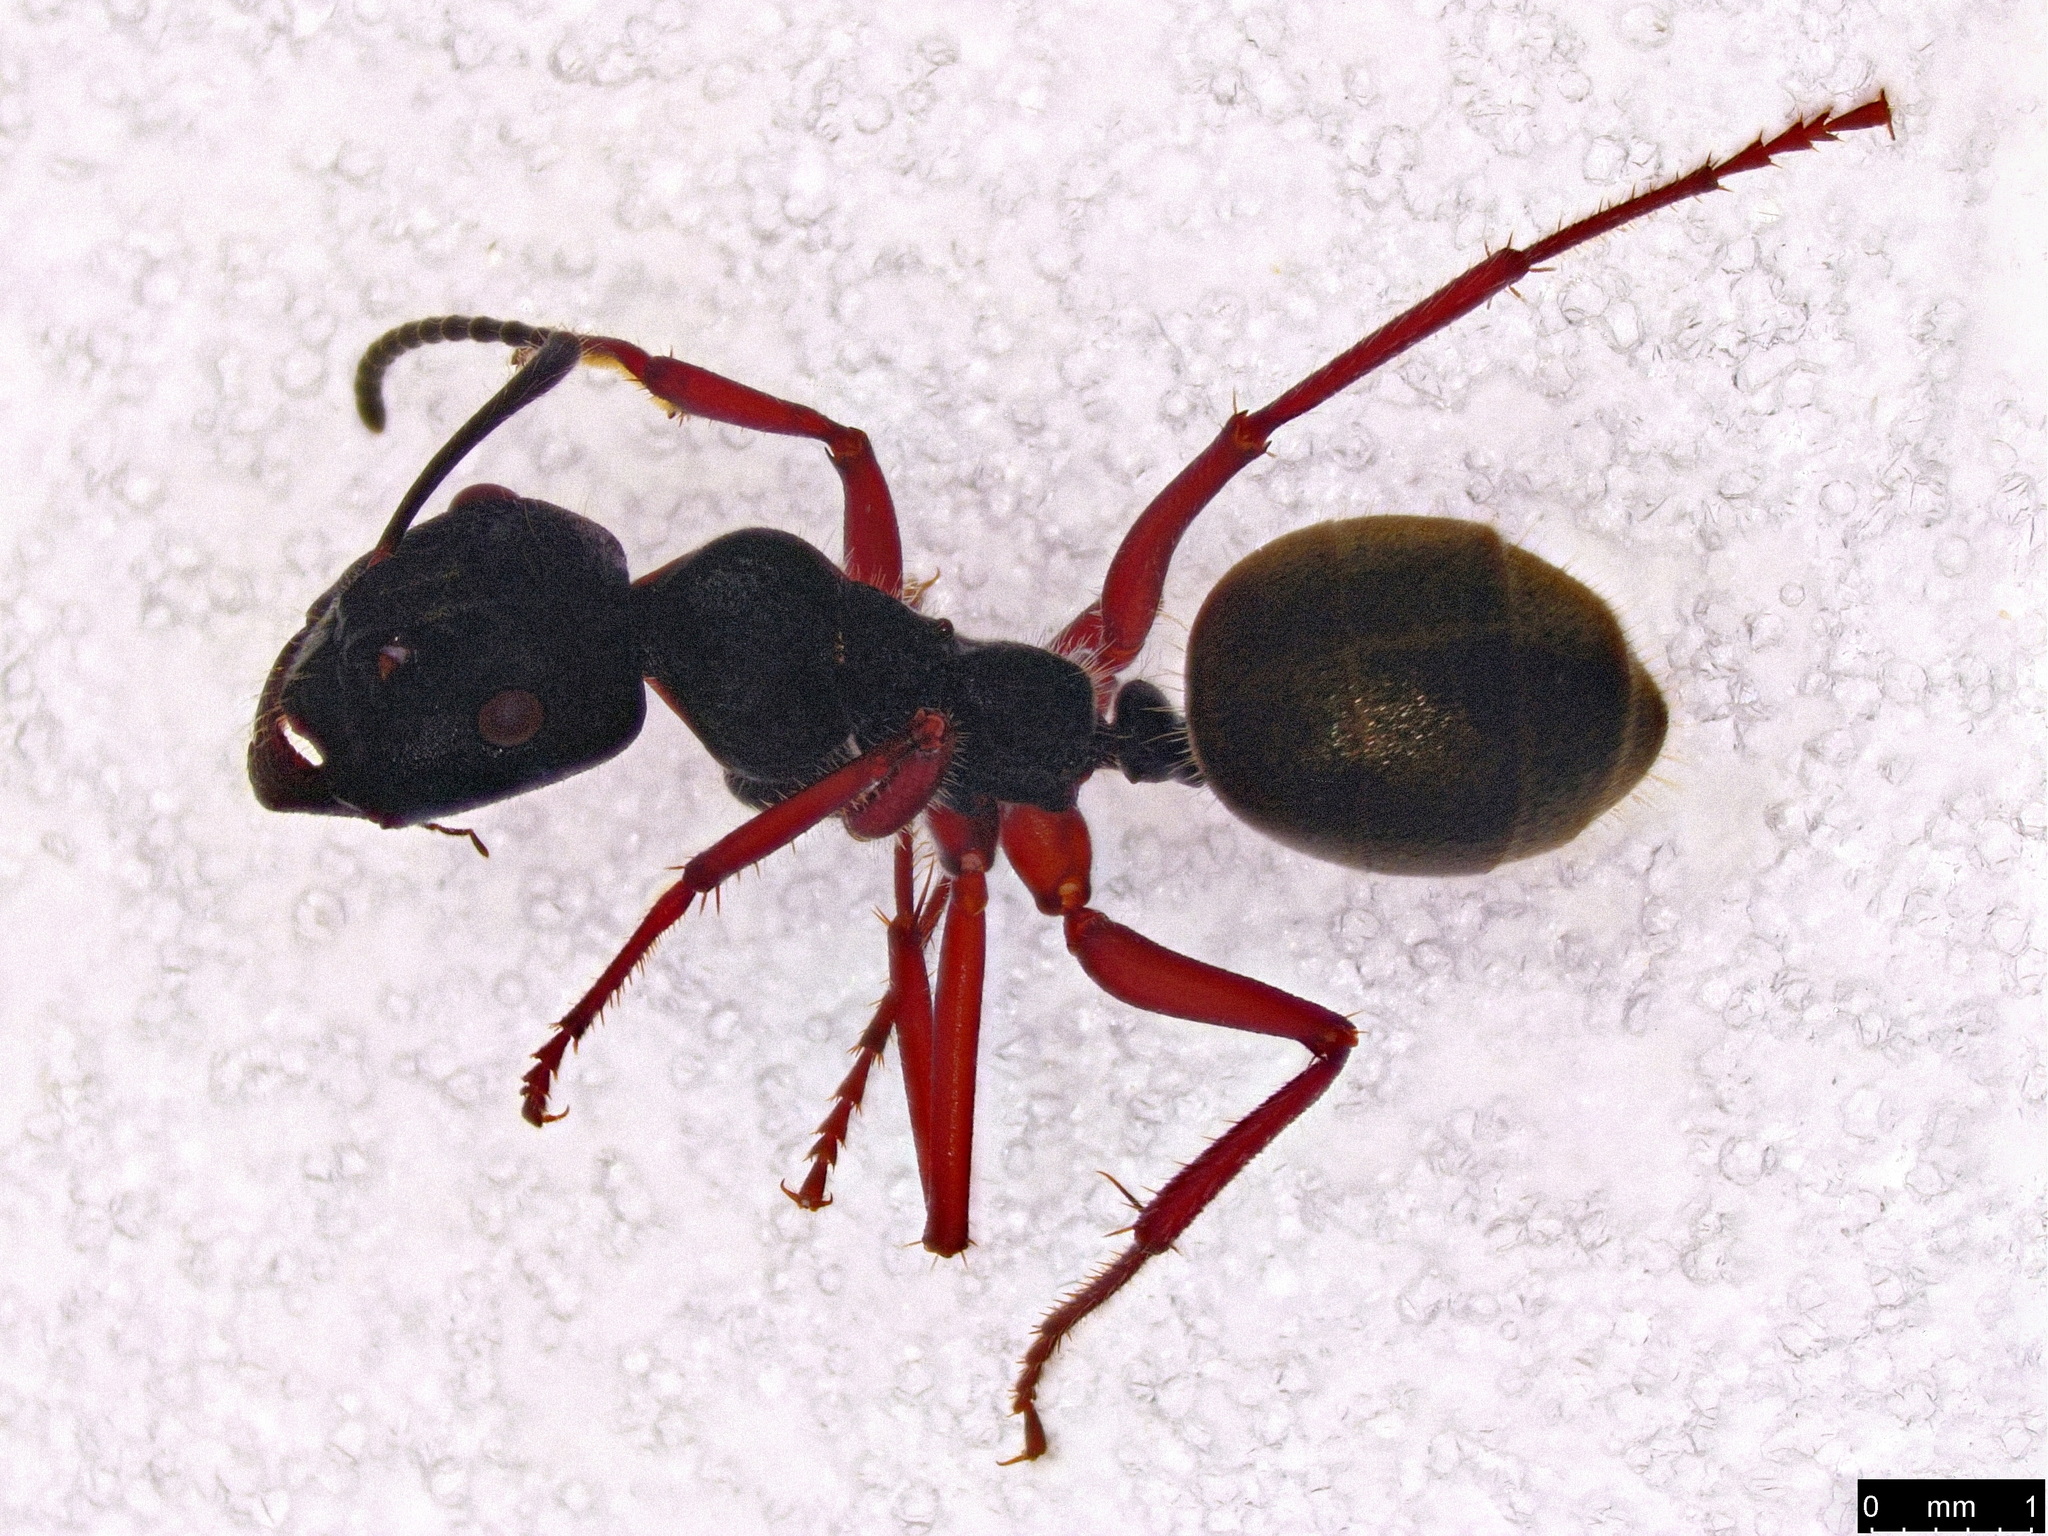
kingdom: Animalia
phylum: Arthropoda
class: Insecta
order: Hymenoptera
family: Formicidae
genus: Camponotus
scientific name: Camponotus suffusus
